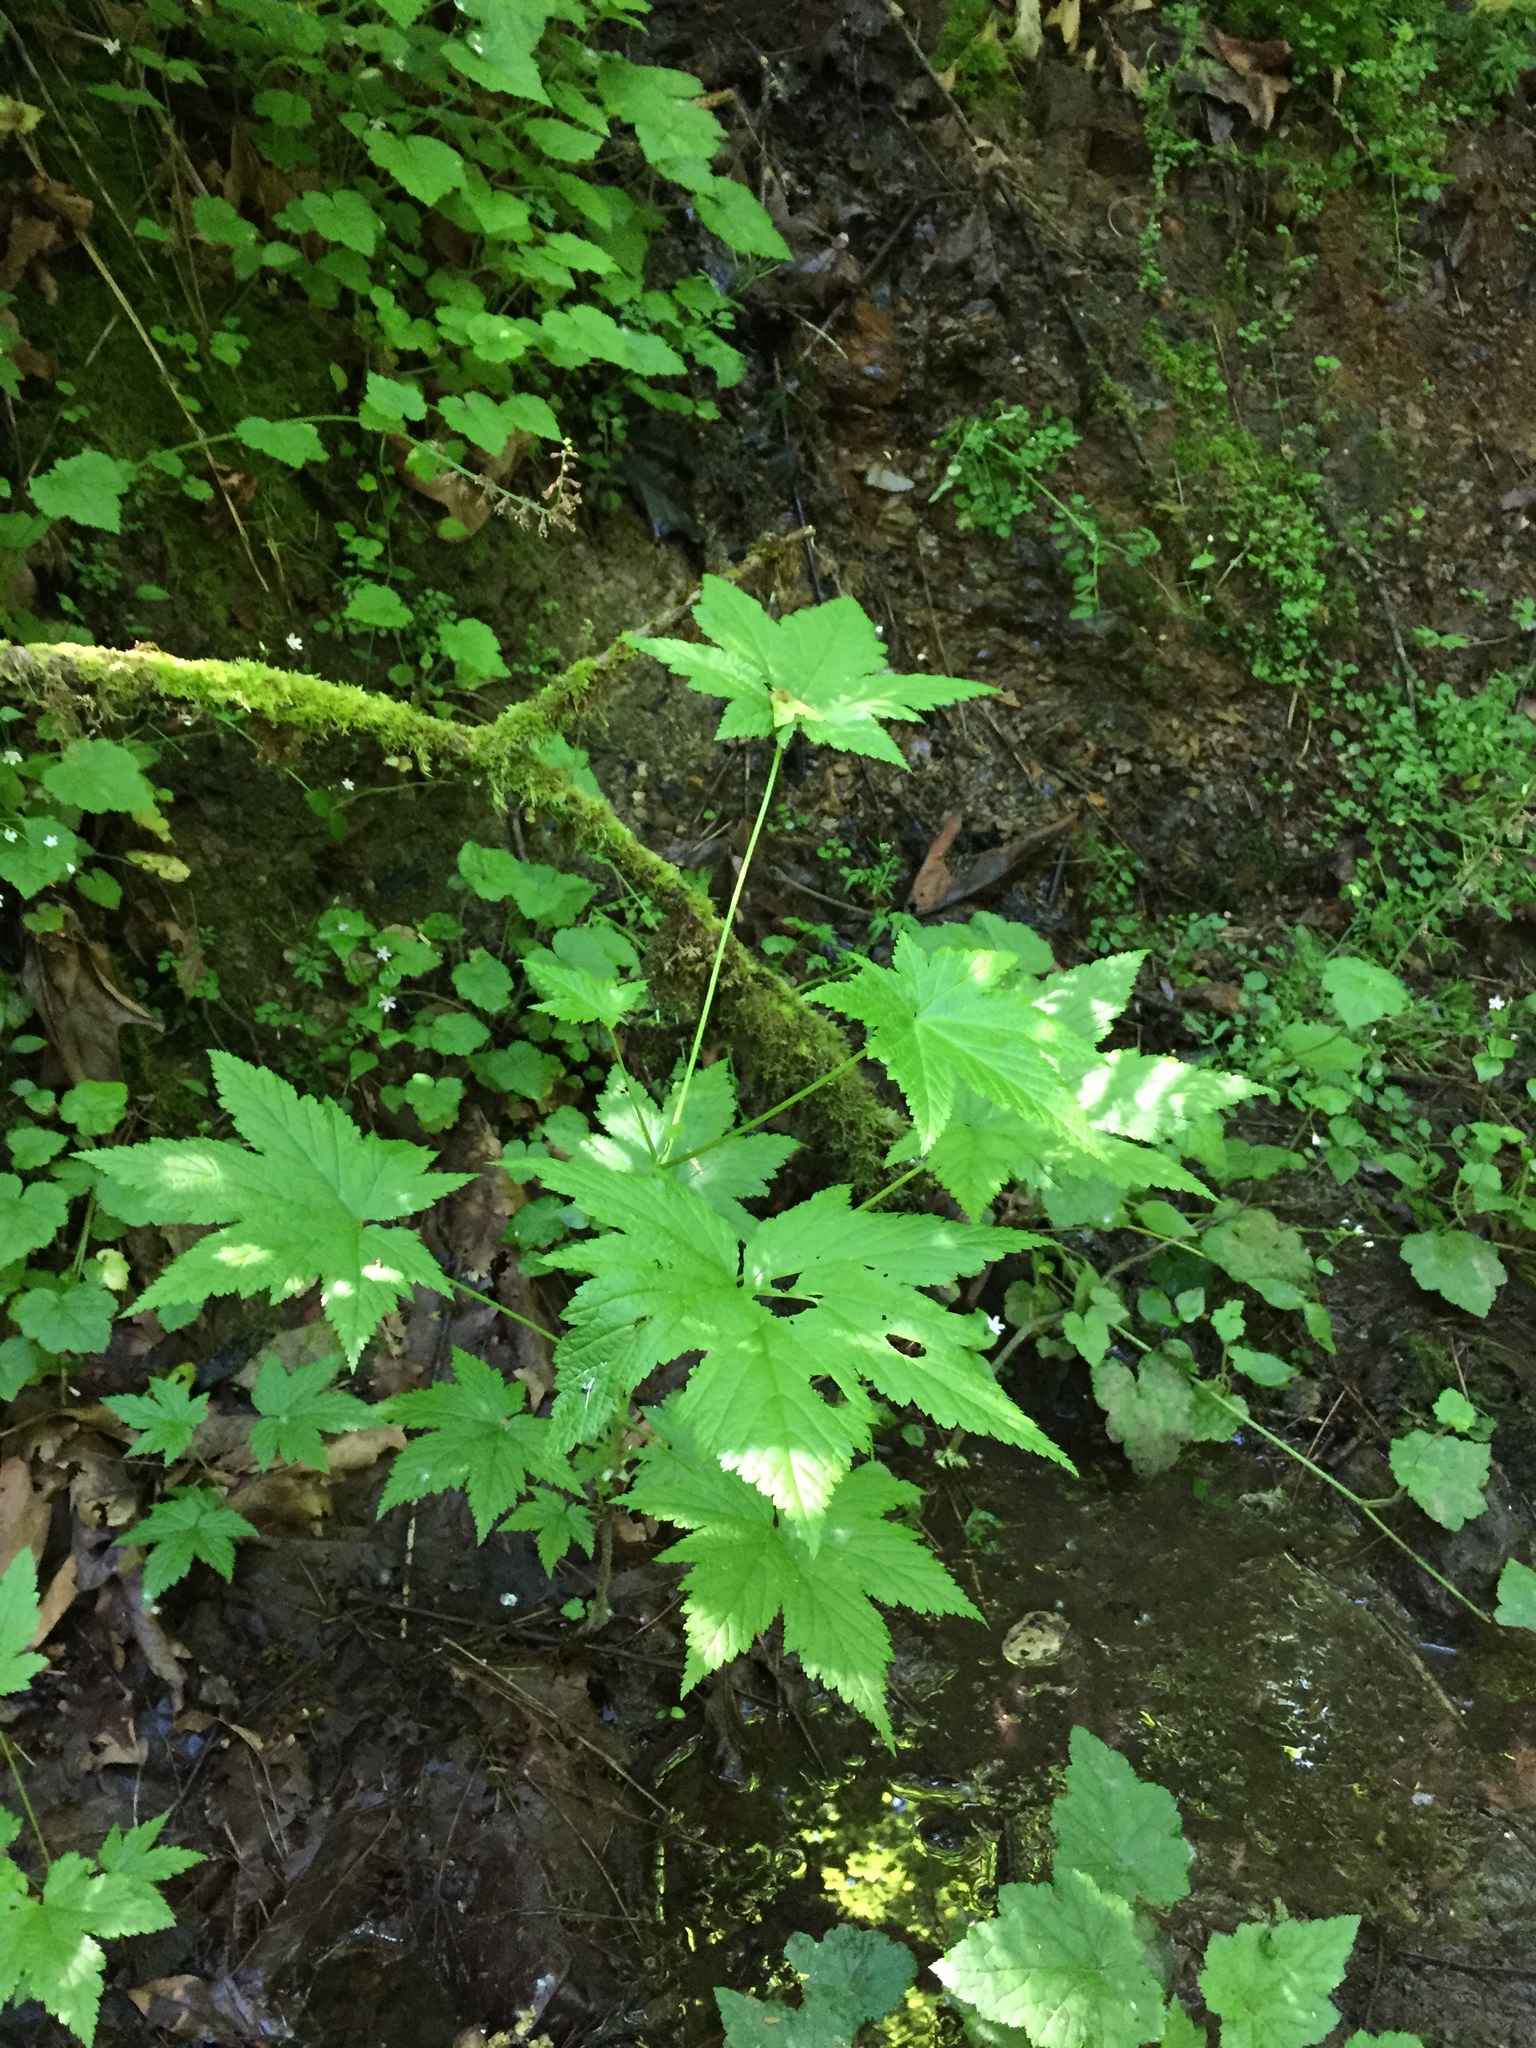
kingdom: Plantae
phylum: Tracheophyta
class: Magnoliopsida
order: Saxifragales
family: Grossulariaceae
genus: Ribes
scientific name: Ribes bracteosum
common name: California black currant
